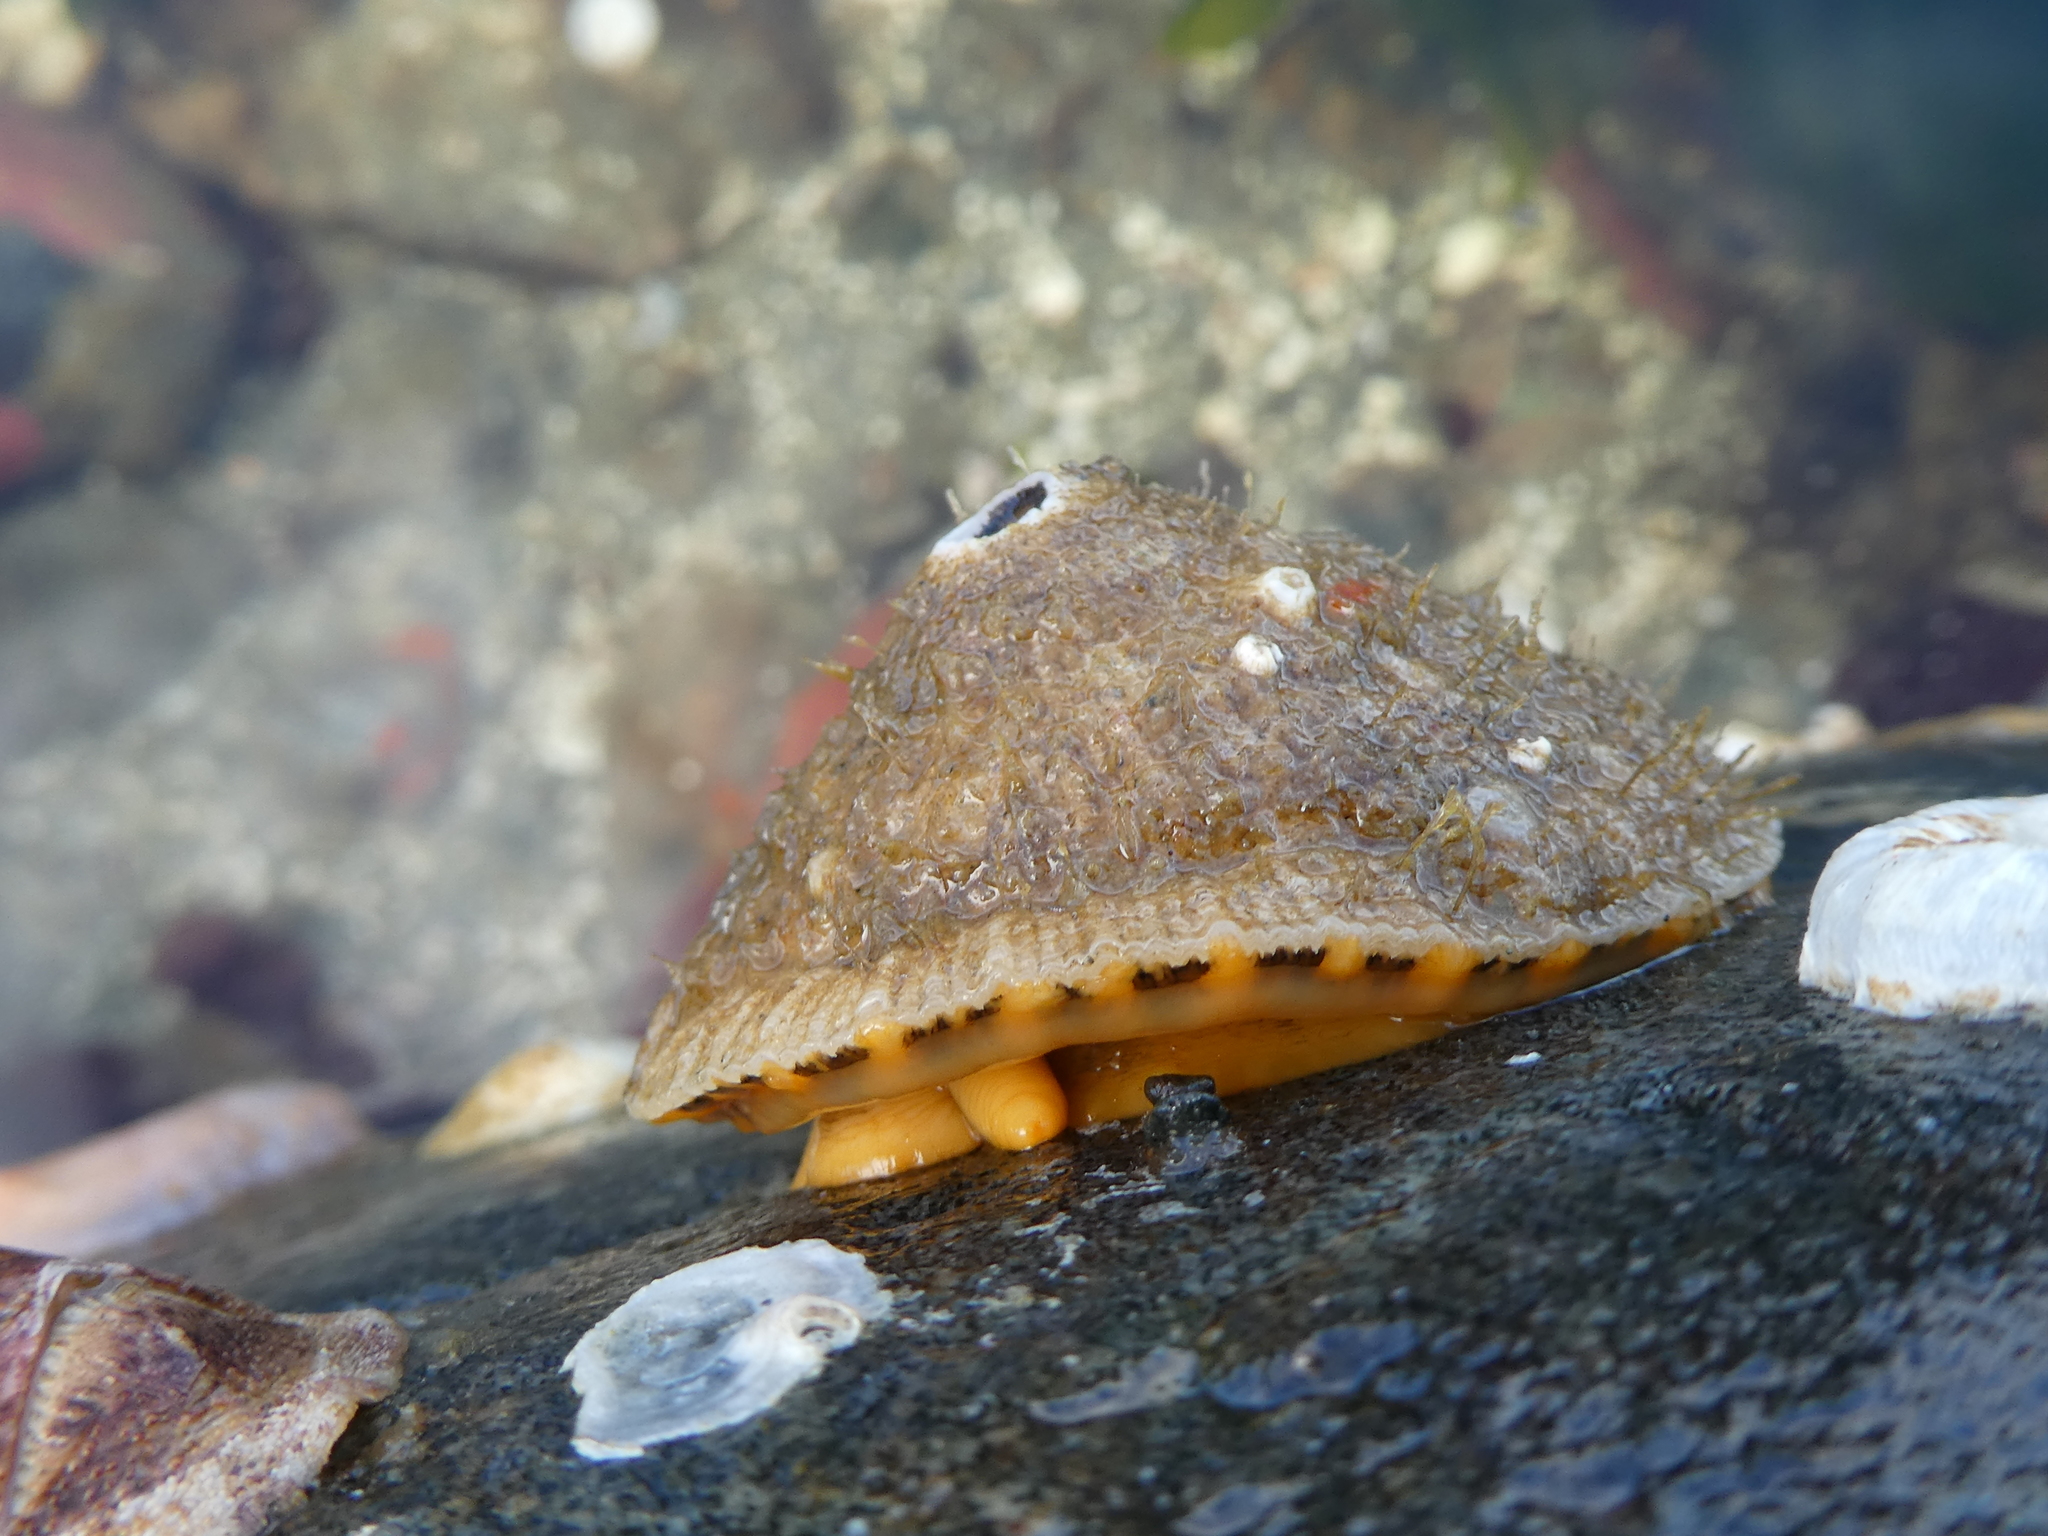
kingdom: Animalia
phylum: Mollusca
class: Gastropoda
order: Lepetellida
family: Fissurellidae
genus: Diodora
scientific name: Diodora aspera
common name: Rough keyhole limpet
